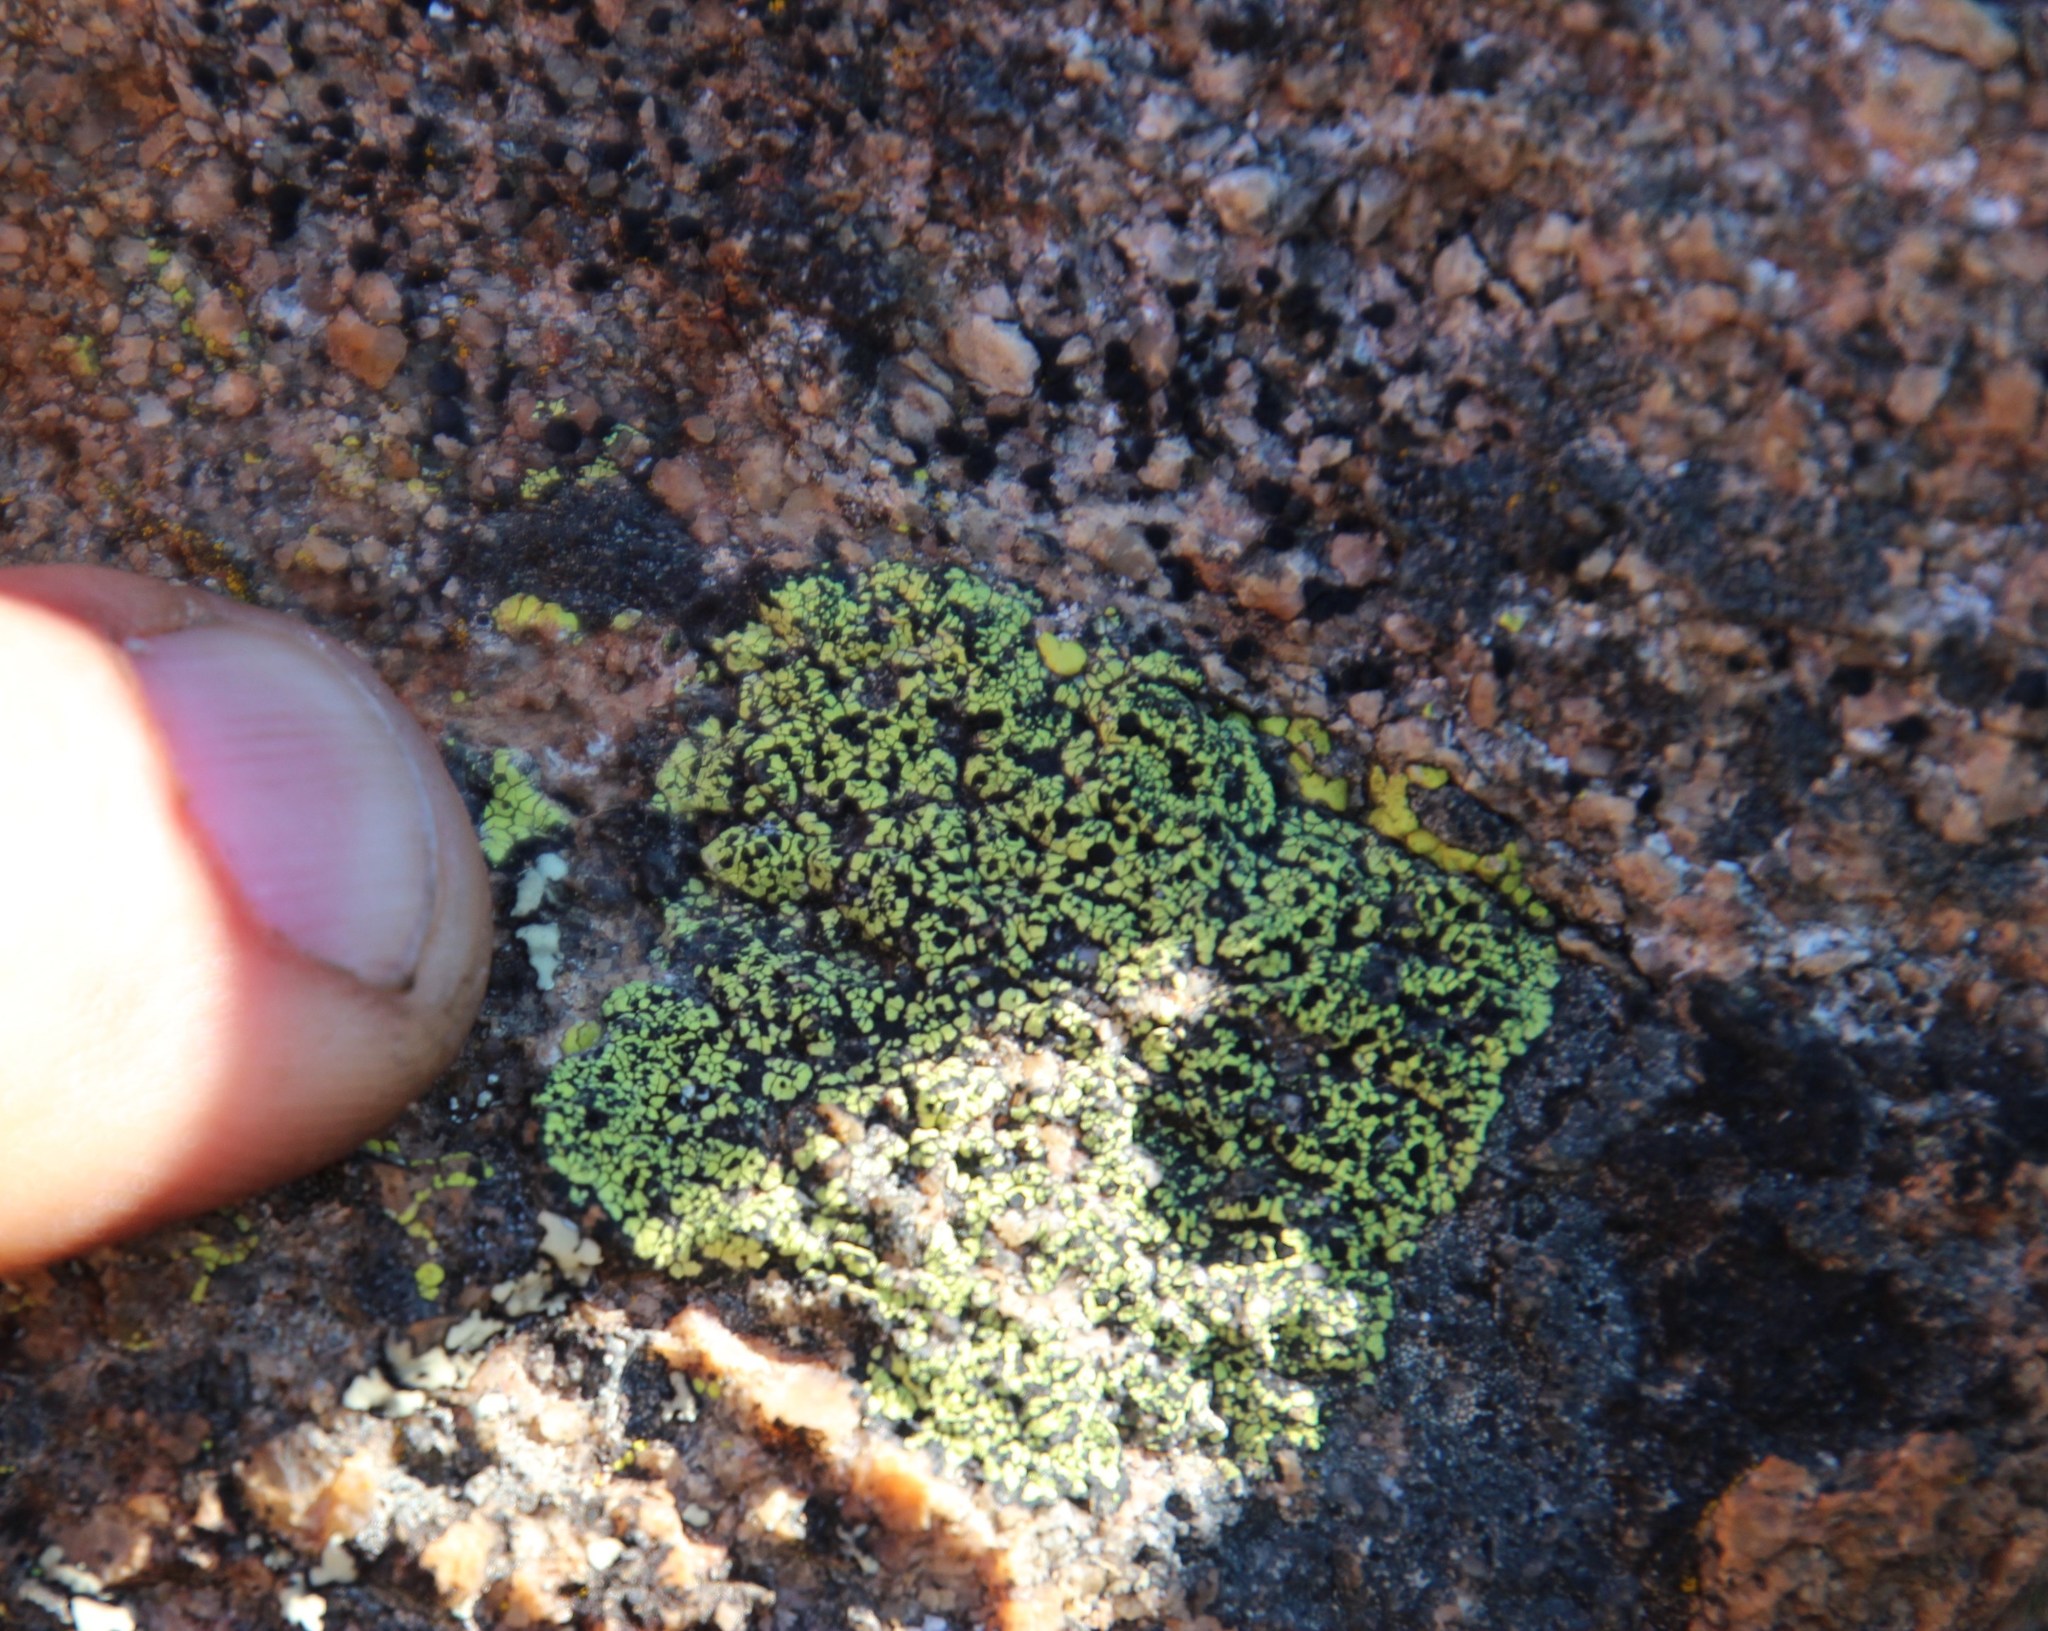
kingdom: Fungi
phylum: Ascomycota
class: Lecanoromycetes
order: Rhizocarpales
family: Rhizocarpaceae
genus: Rhizocarpon
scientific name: Rhizocarpon lecanorinum
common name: Crescent map lichen
